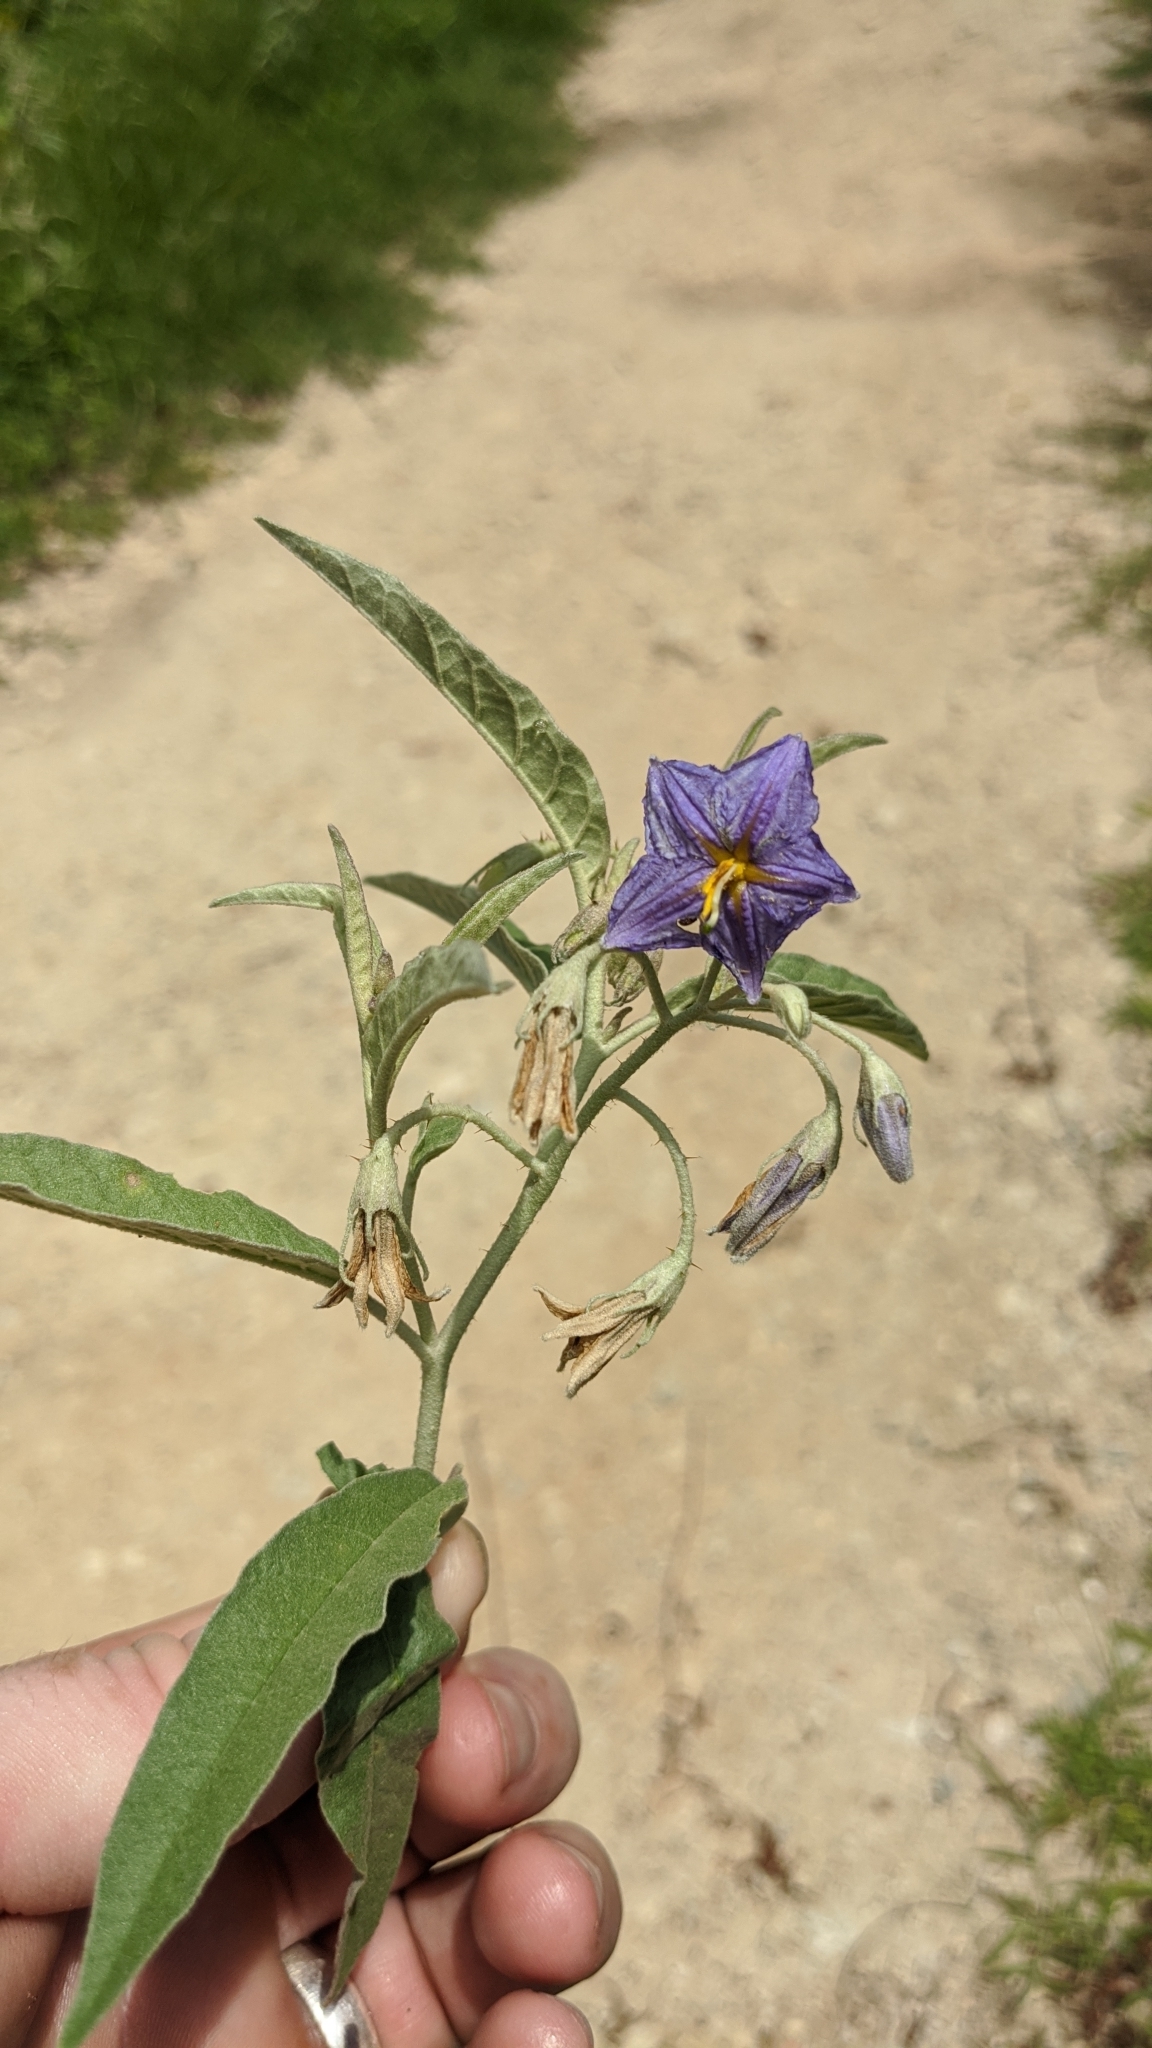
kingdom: Plantae
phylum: Tracheophyta
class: Magnoliopsida
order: Solanales
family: Solanaceae
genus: Solanum
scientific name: Solanum elaeagnifolium
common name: Silverleaf nightshade
